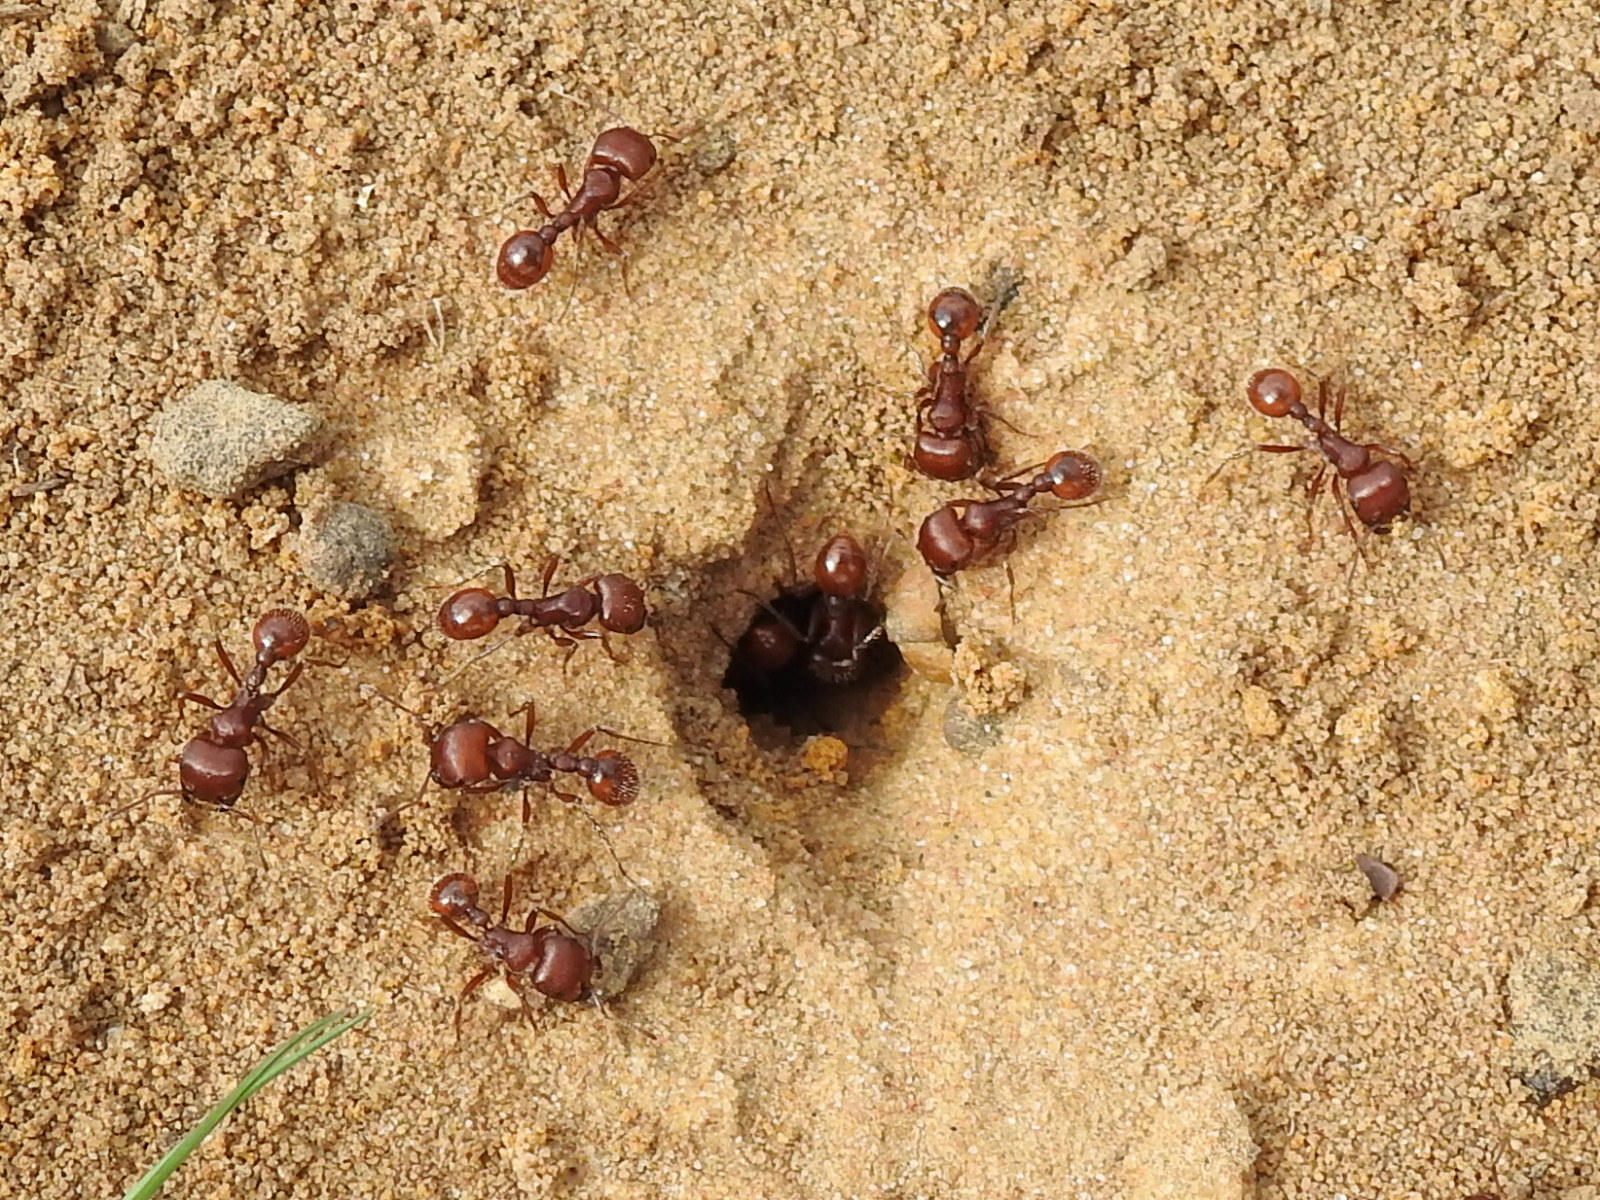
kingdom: Animalia
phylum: Arthropoda
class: Insecta
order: Hymenoptera
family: Formicidae
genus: Pogonomyrmex
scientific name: Pogonomyrmex barbatus
